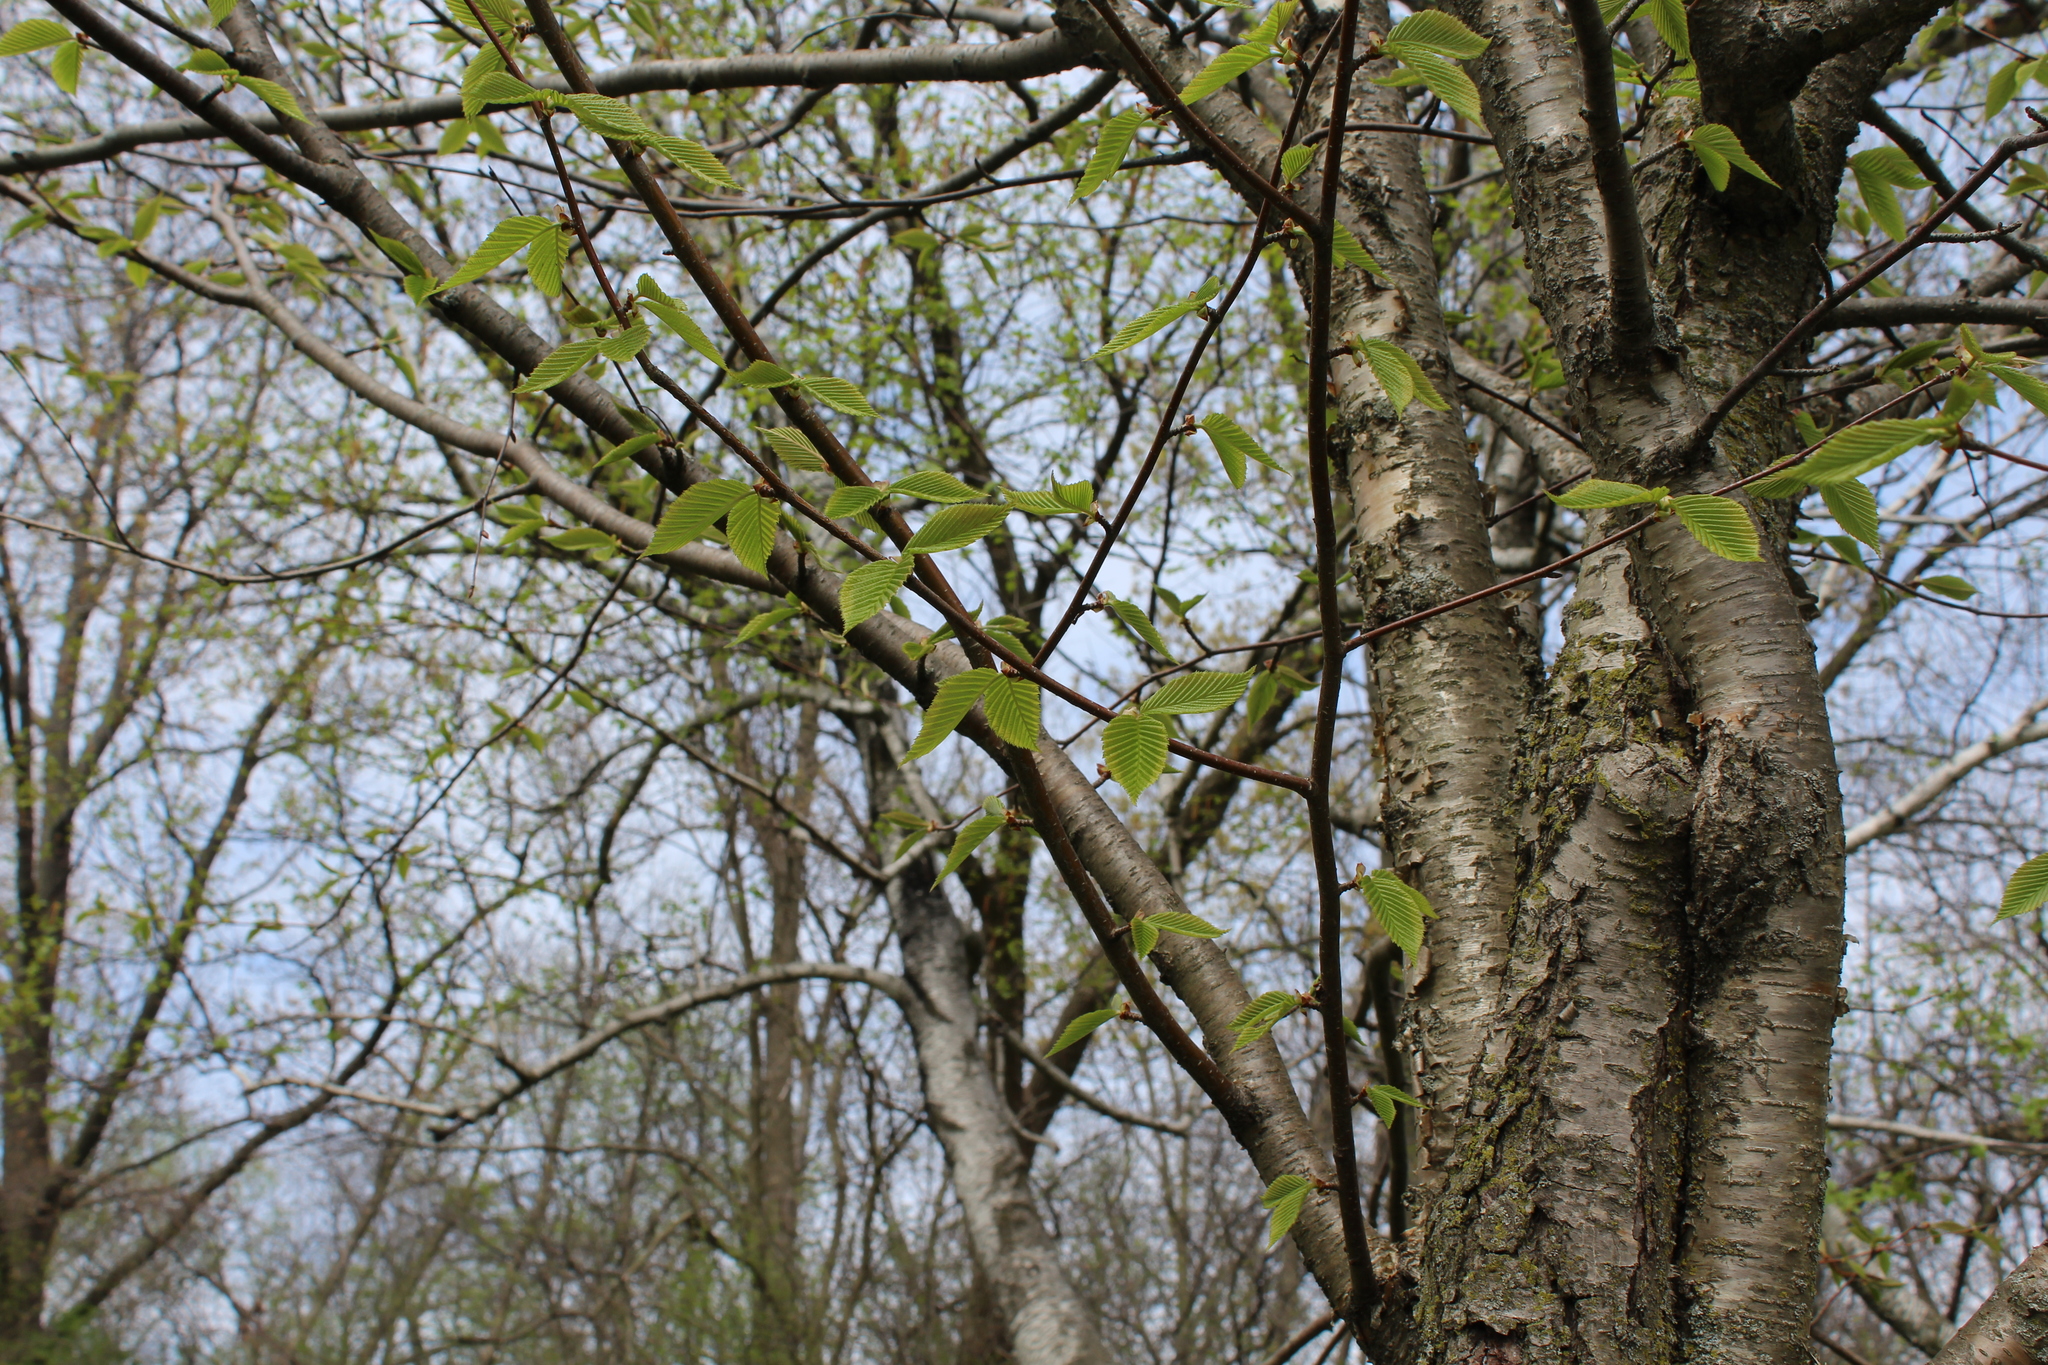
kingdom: Plantae
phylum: Tracheophyta
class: Magnoliopsida
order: Fagales
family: Betulaceae
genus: Betula
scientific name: Betula alleghaniensis
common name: Yellow birch
